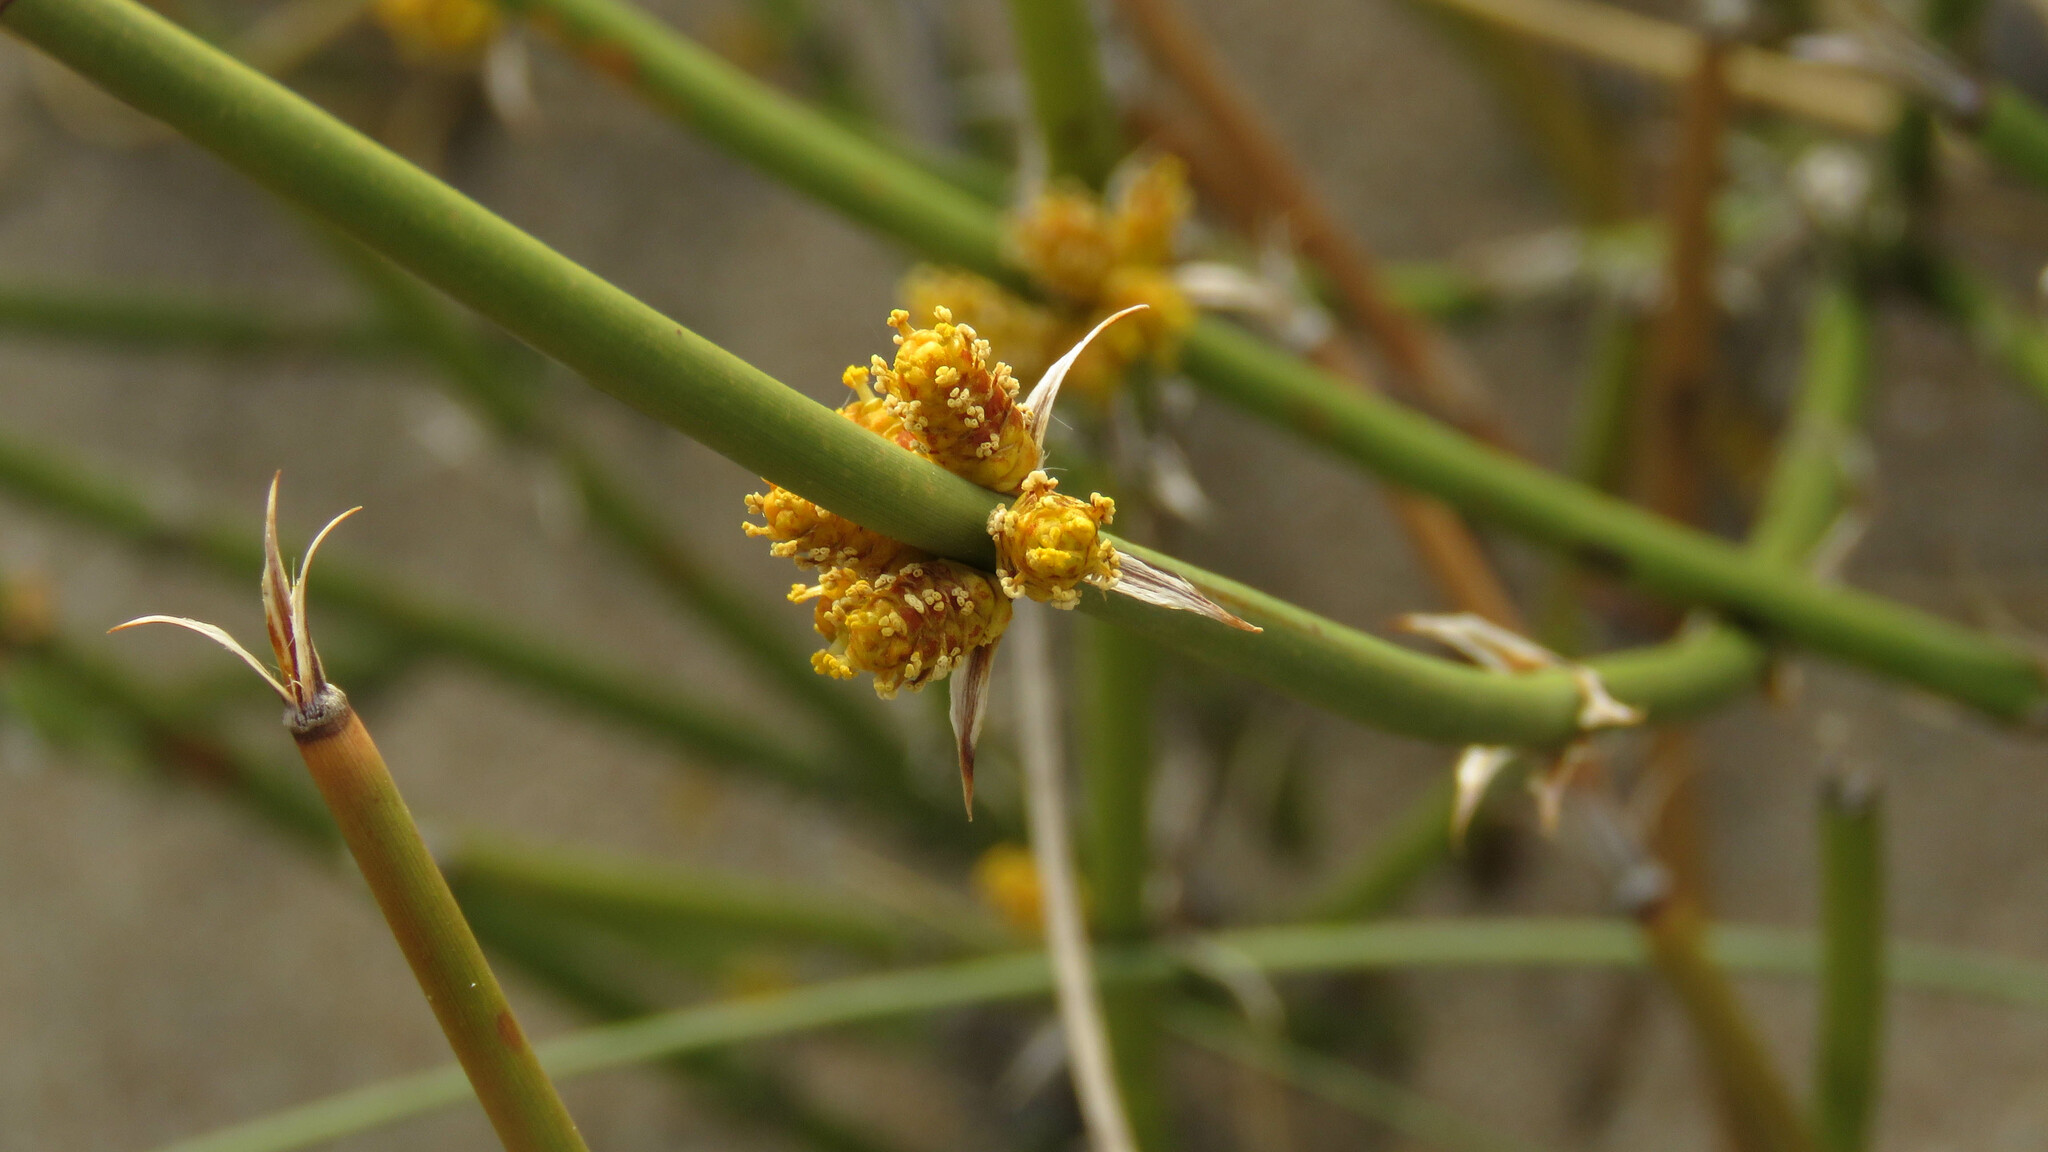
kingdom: Plantae
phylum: Tracheophyta
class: Gnetopsida
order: Ephedrales
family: Ephedraceae
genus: Ephedra
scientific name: Ephedra ochreata
